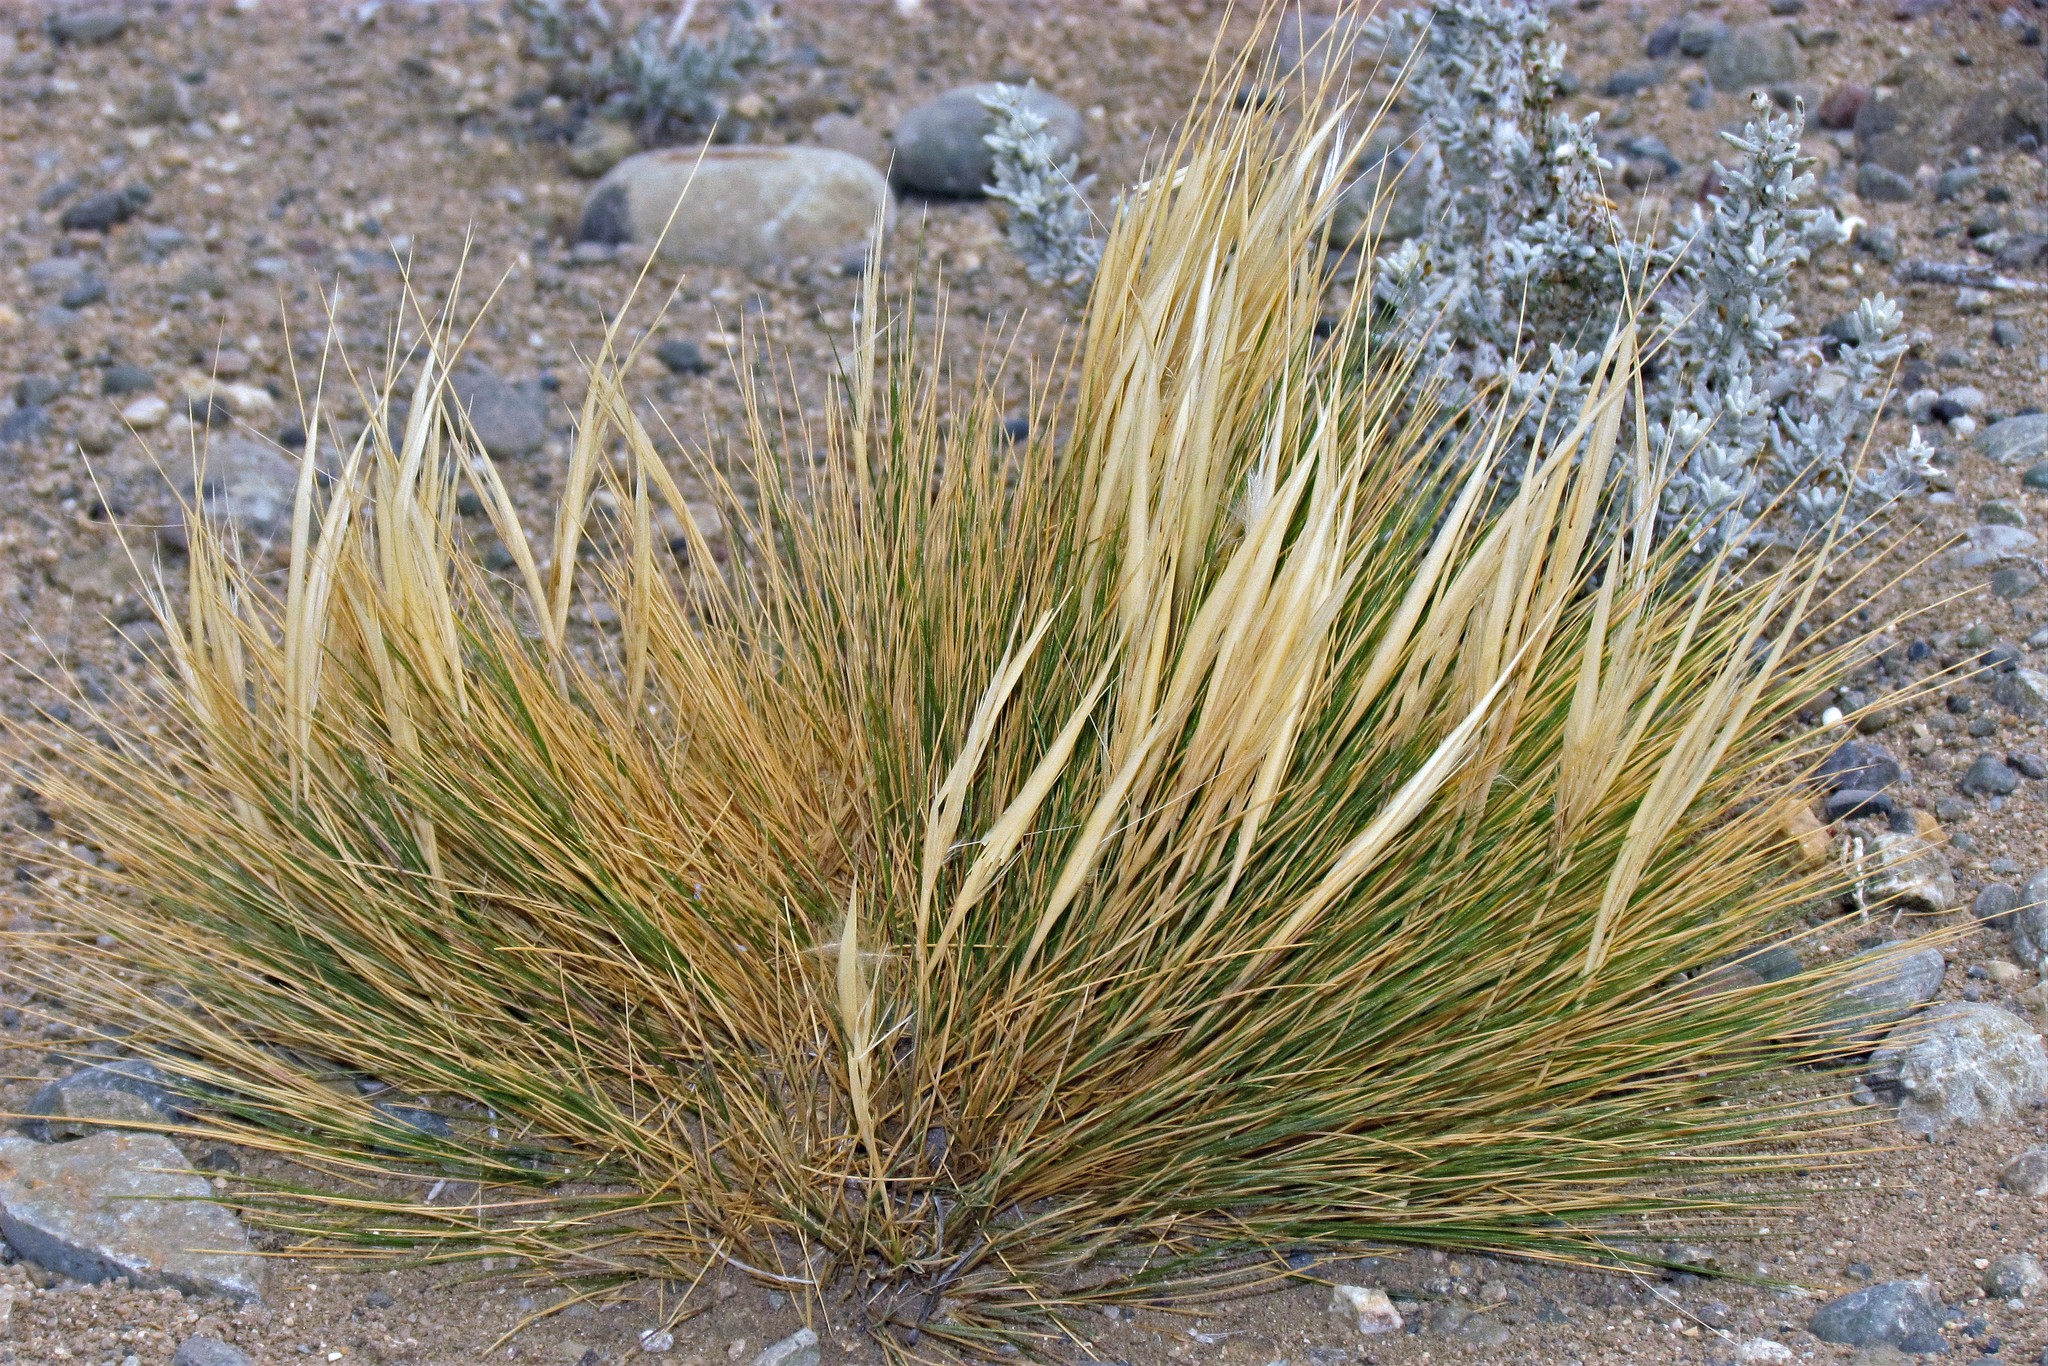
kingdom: Plantae
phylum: Tracheophyta
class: Liliopsida
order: Poales
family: Poaceae
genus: Pappostipa
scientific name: Pappostipa humilis
